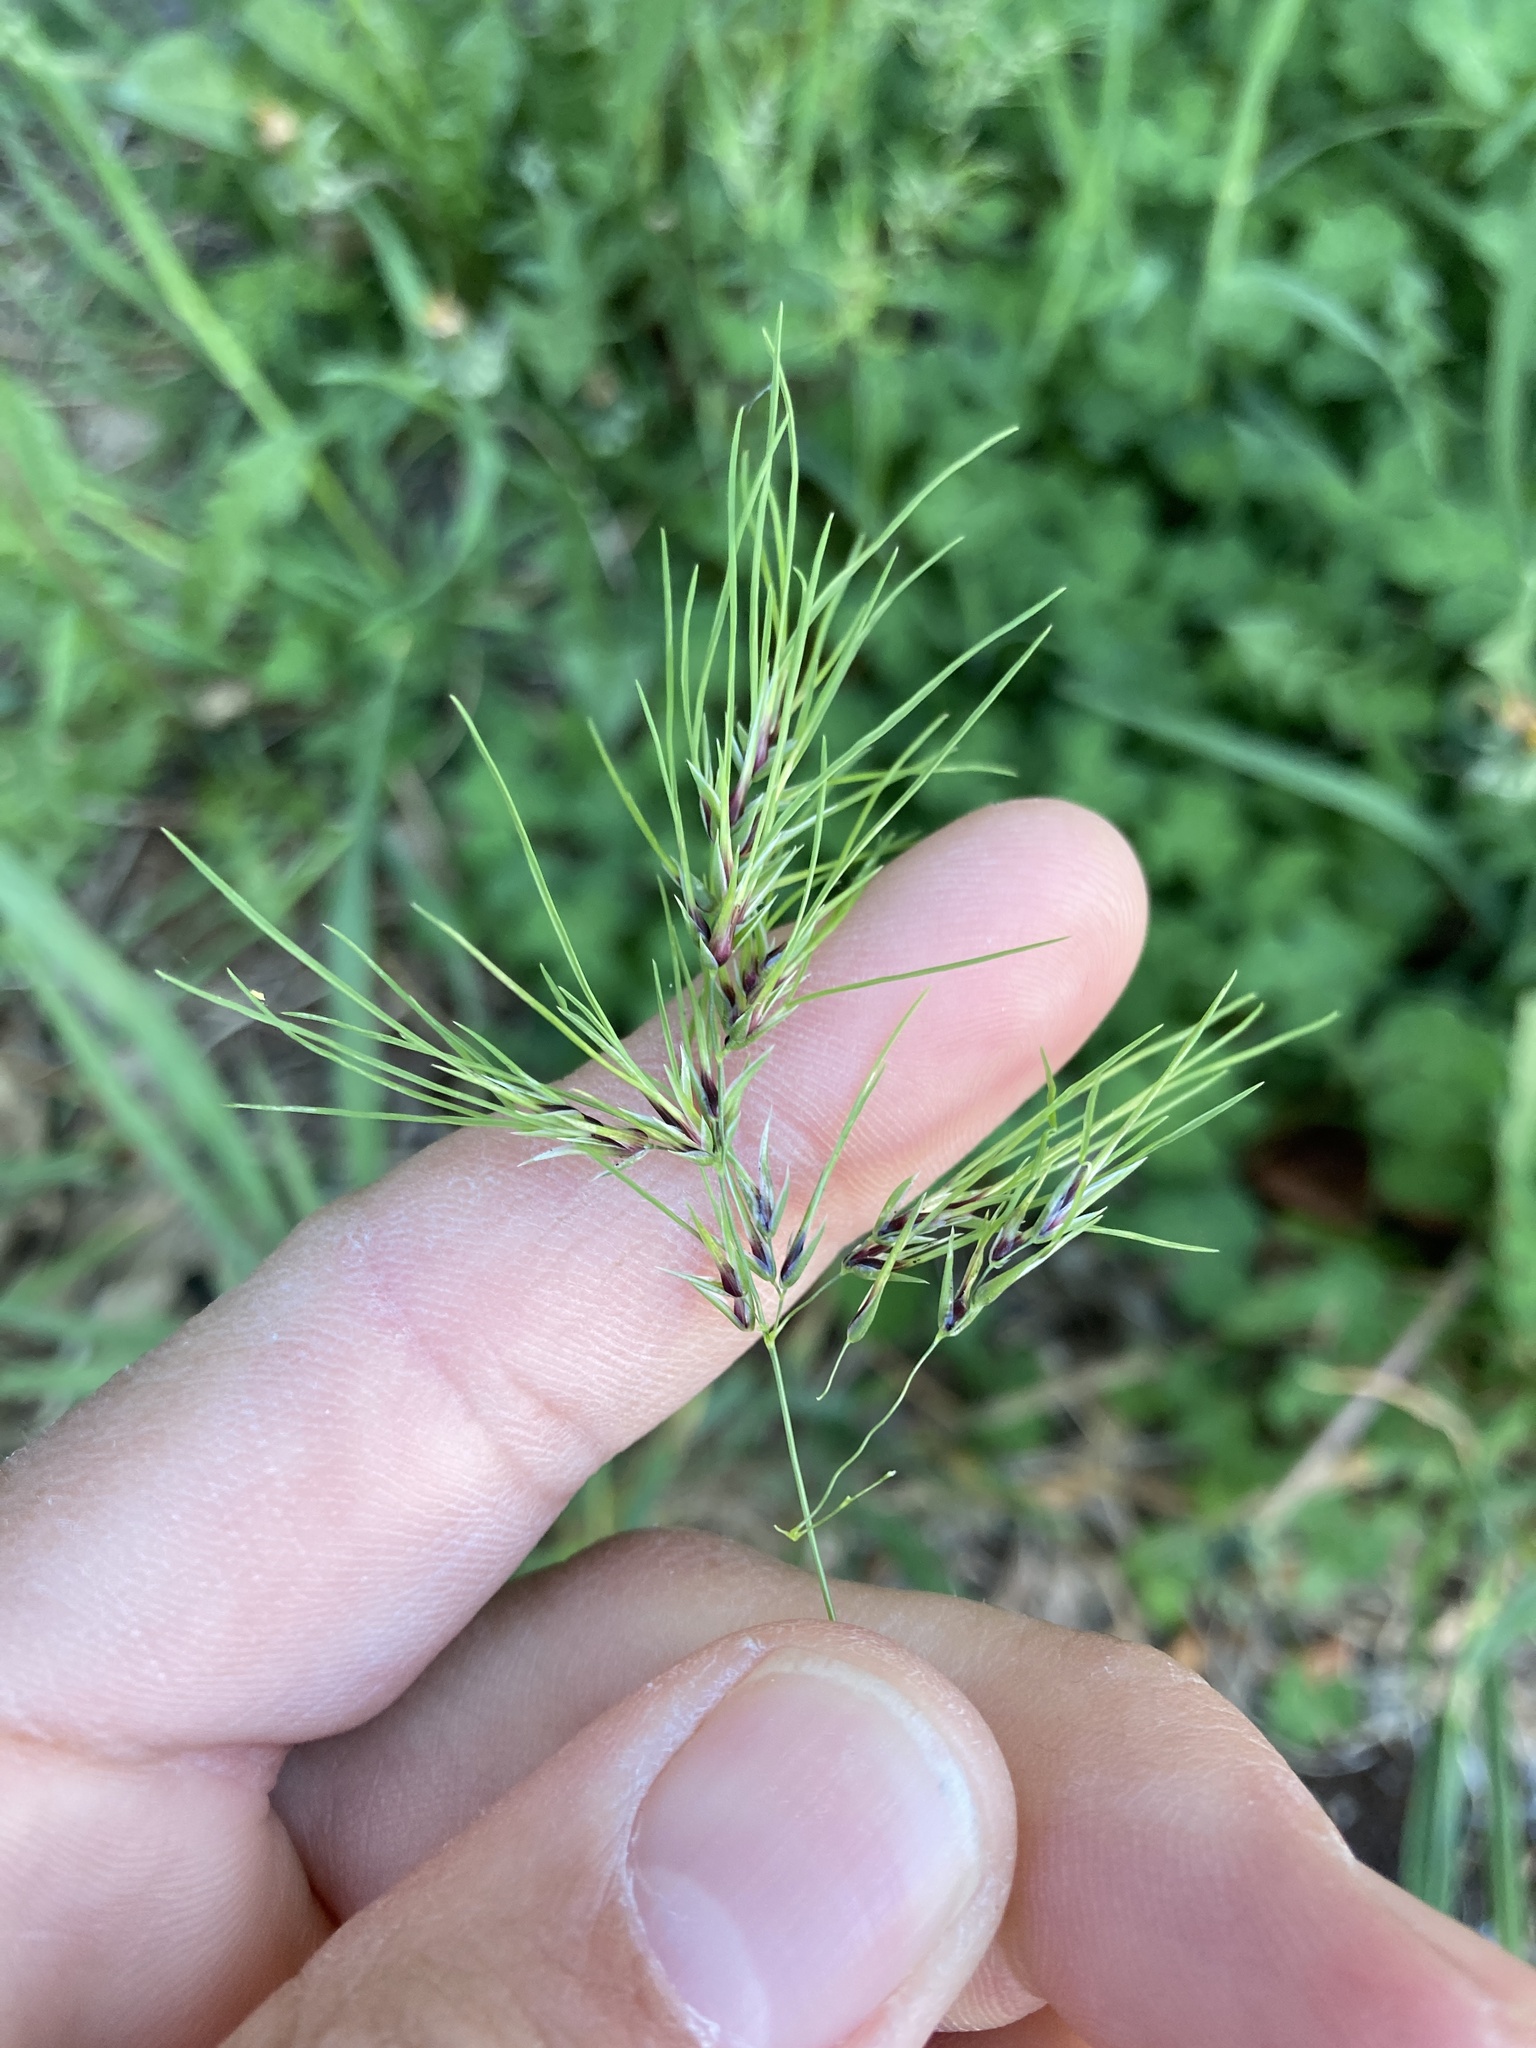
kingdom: Plantae
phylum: Tracheophyta
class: Liliopsida
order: Poales
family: Poaceae
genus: Poa
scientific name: Poa bulbosa
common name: Bulbous bluegrass
